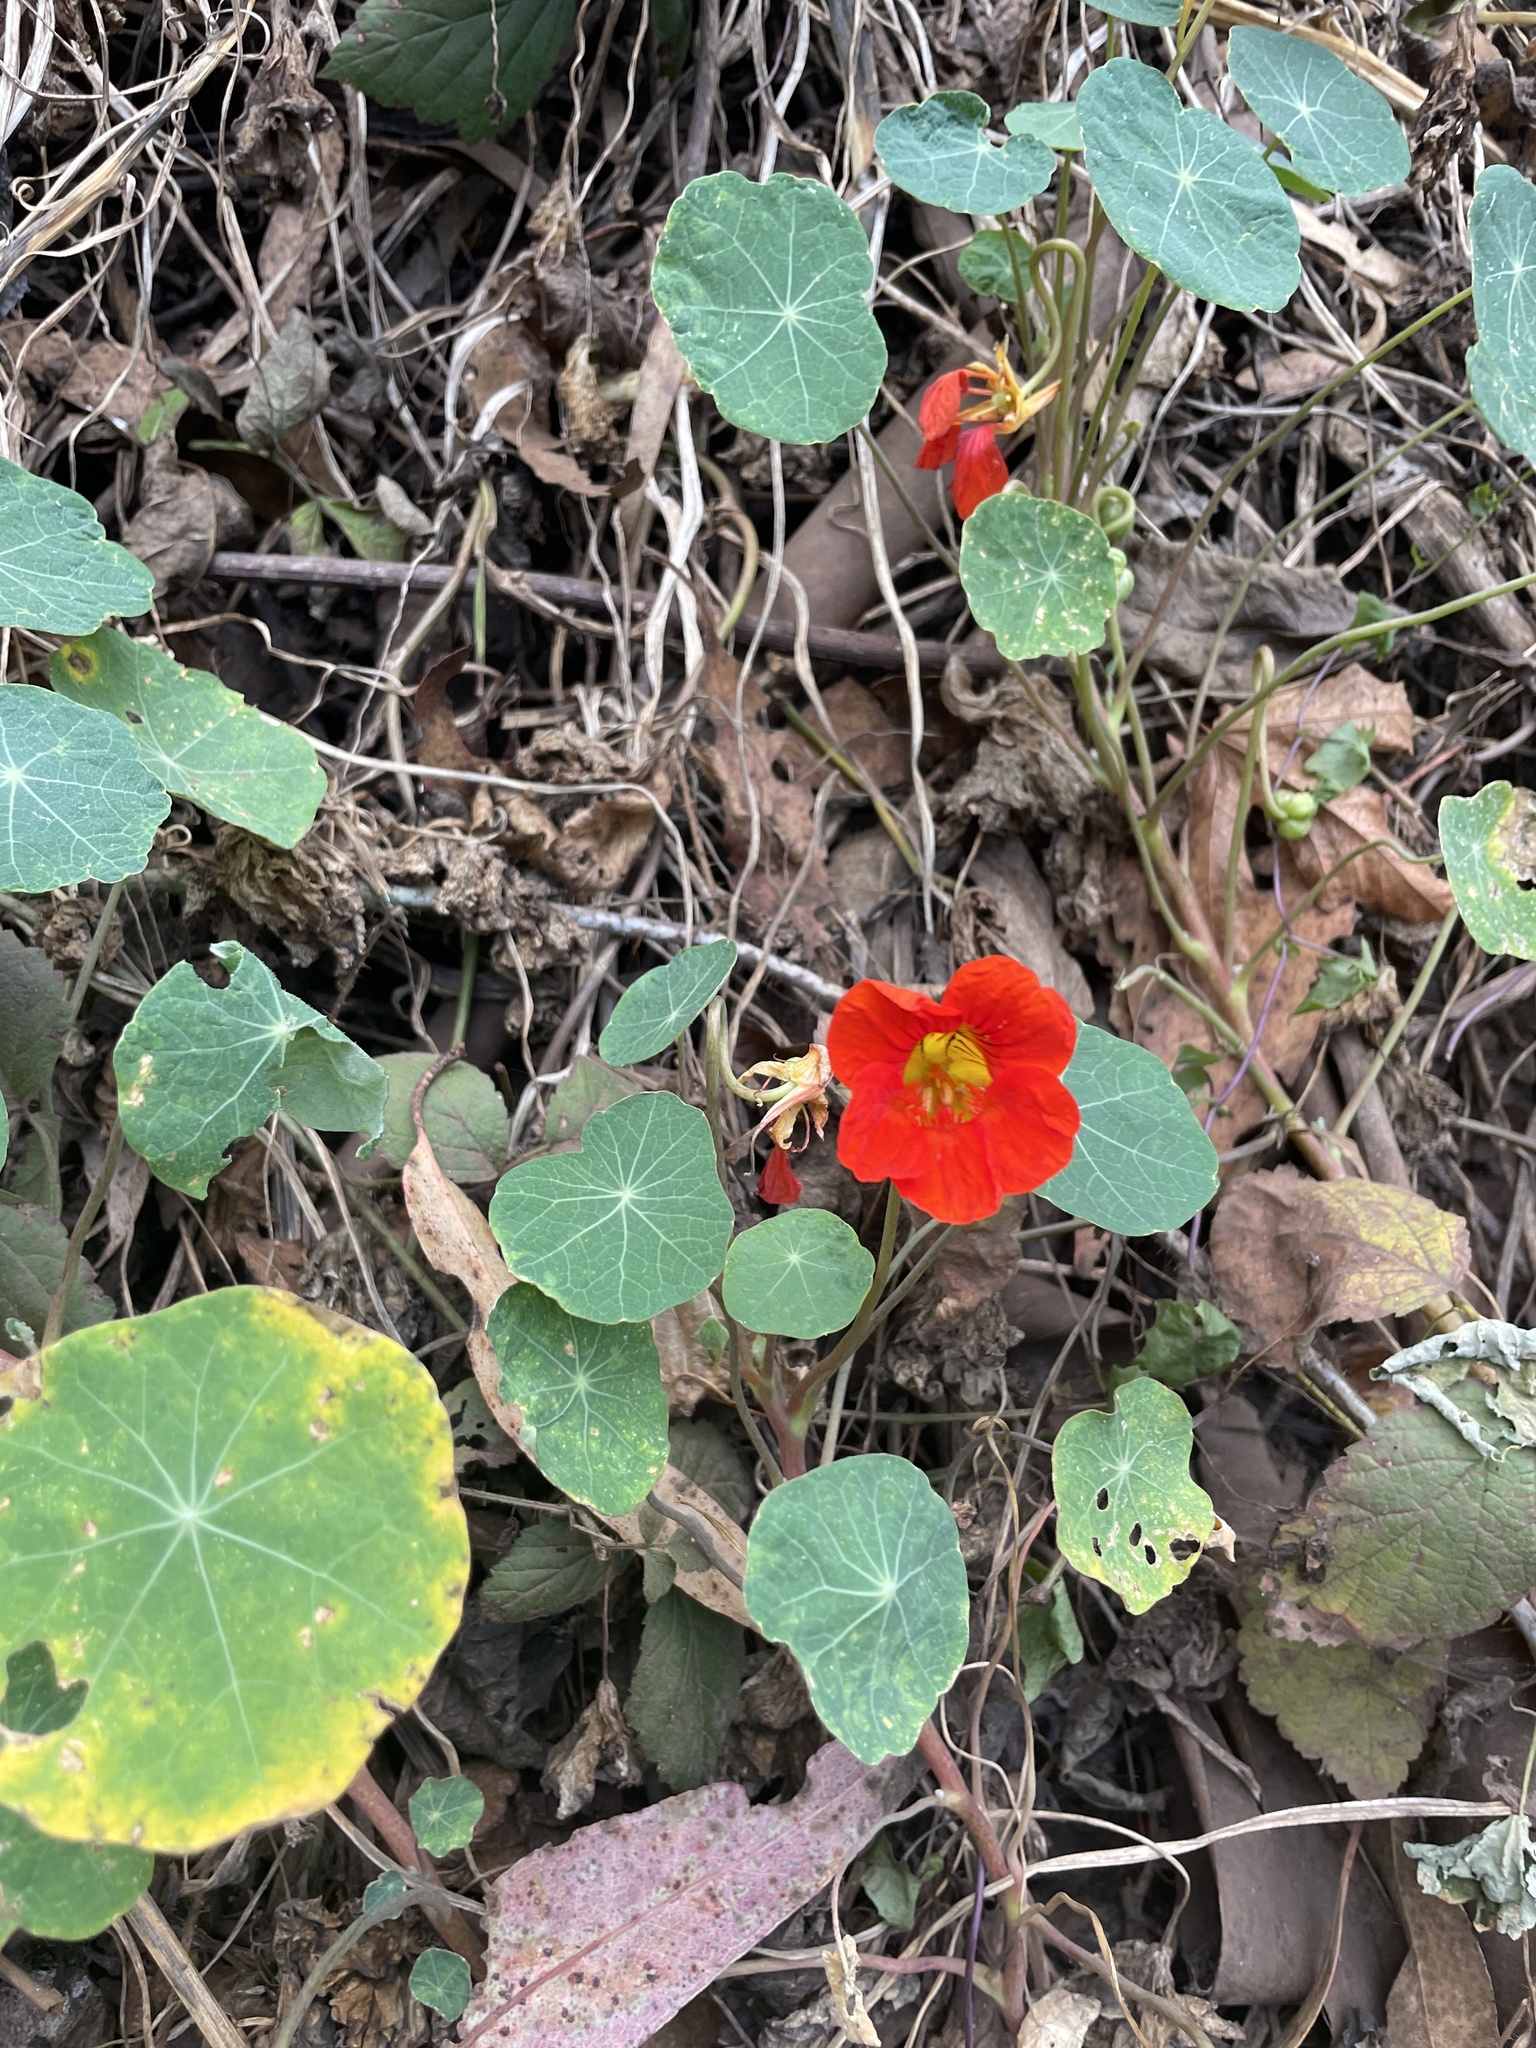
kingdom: Plantae
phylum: Tracheophyta
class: Magnoliopsida
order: Brassicales
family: Tropaeolaceae
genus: Tropaeolum
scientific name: Tropaeolum majus
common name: Nasturtium
